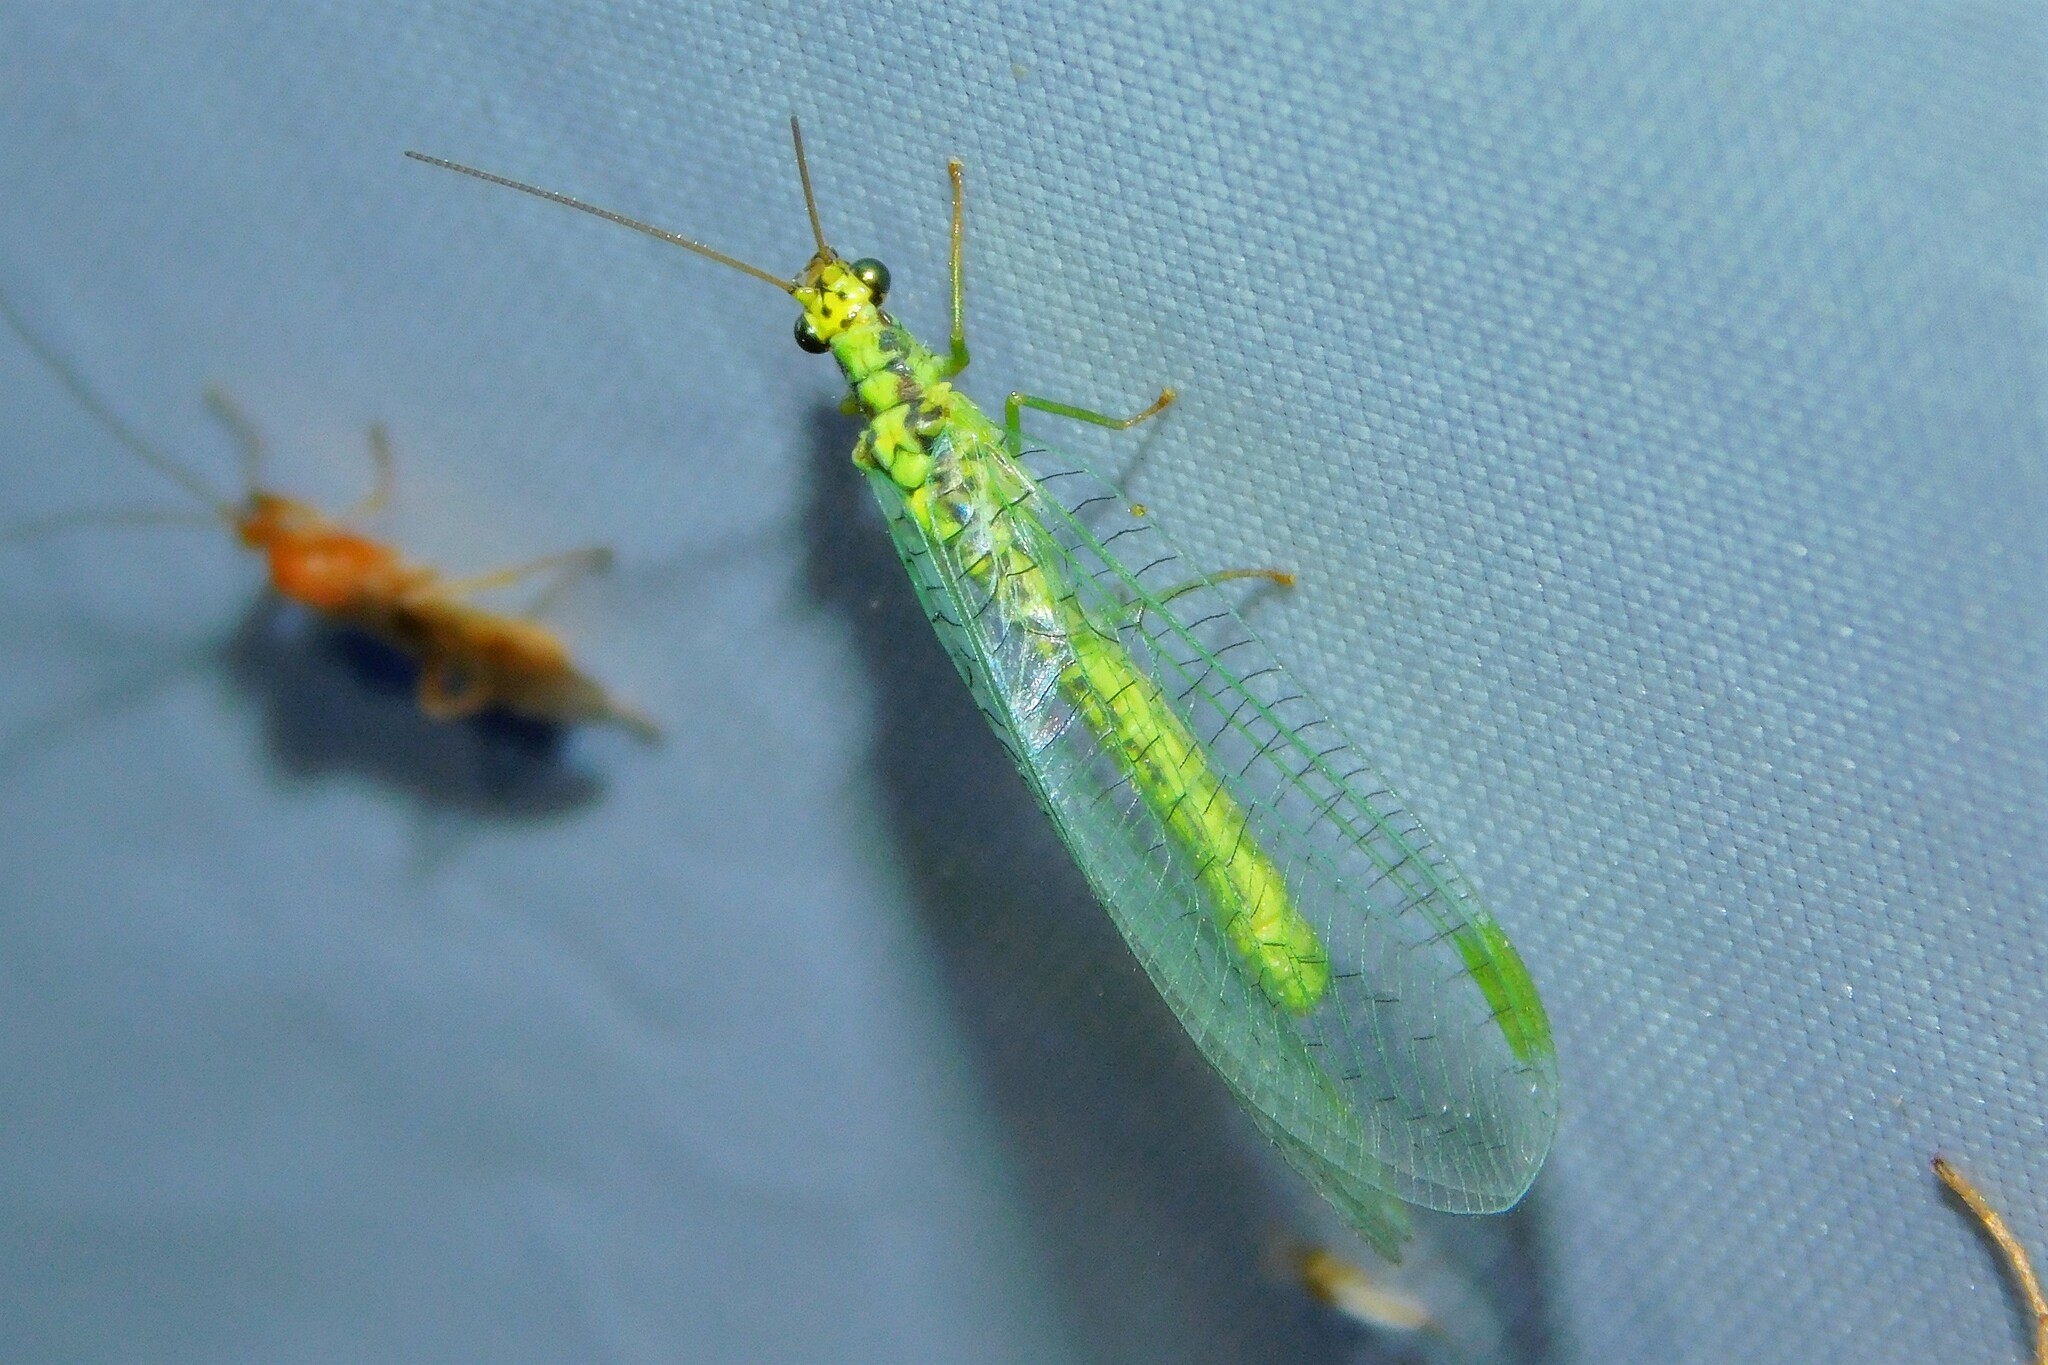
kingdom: Animalia
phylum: Arthropoda
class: Insecta
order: Neuroptera
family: Chrysopidae
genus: Chrysopa
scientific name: Chrysopa walkeri
